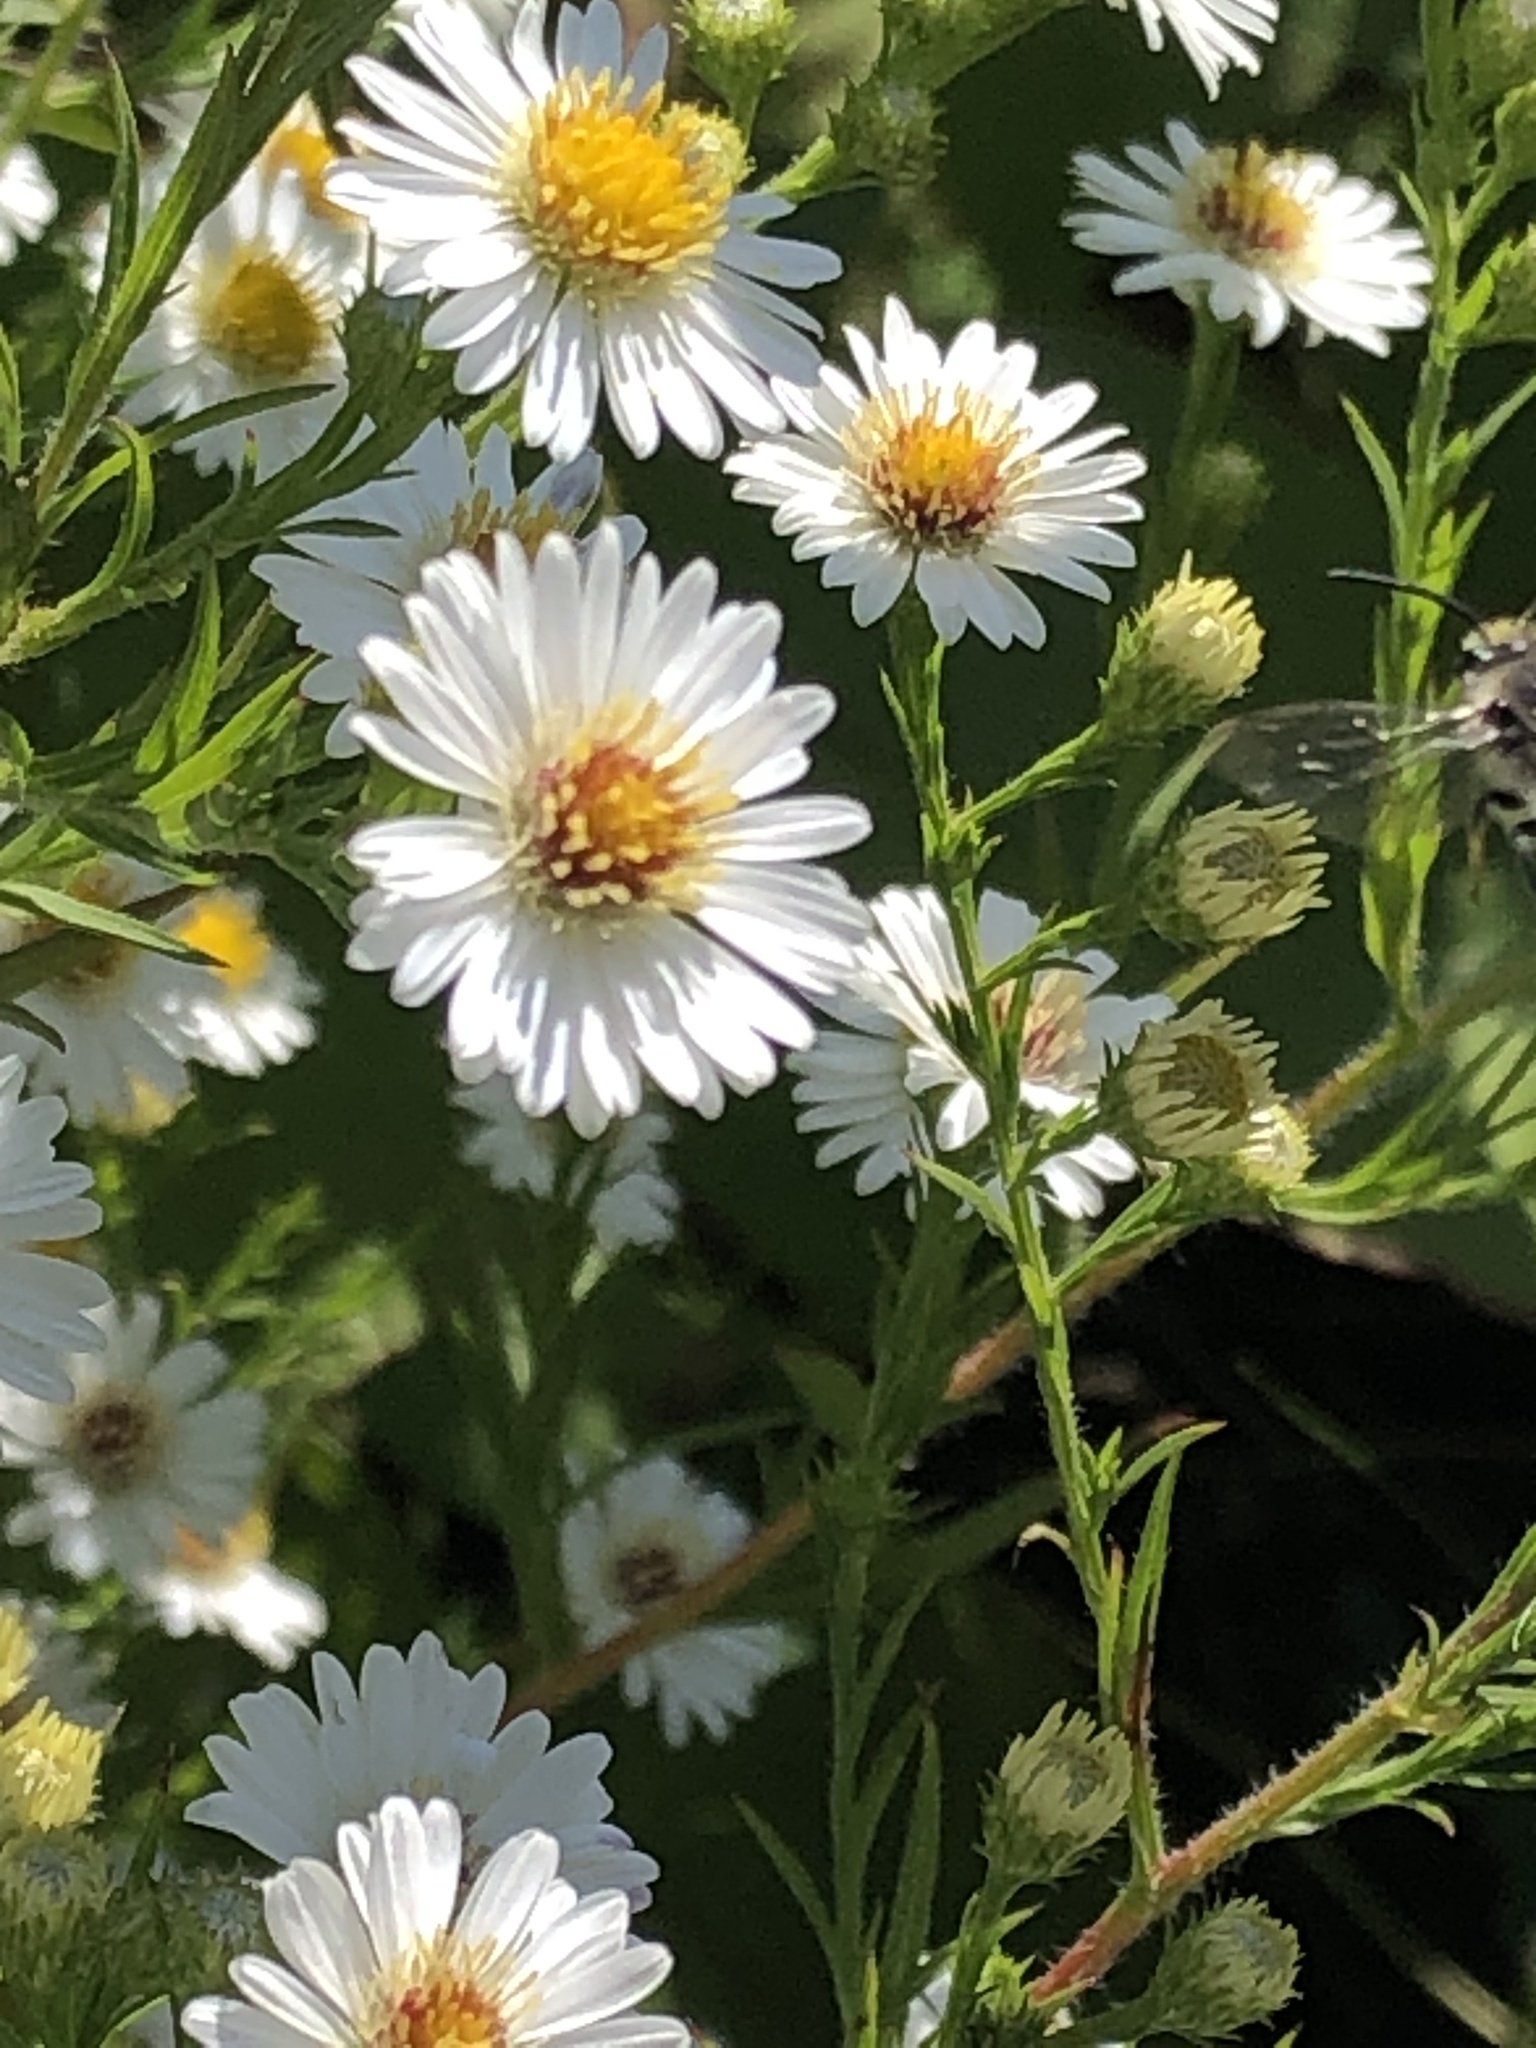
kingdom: Plantae
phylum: Tracheophyta
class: Magnoliopsida
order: Asterales
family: Asteraceae
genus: Symphyotrichum
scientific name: Symphyotrichum pilosum
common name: Awl aster
